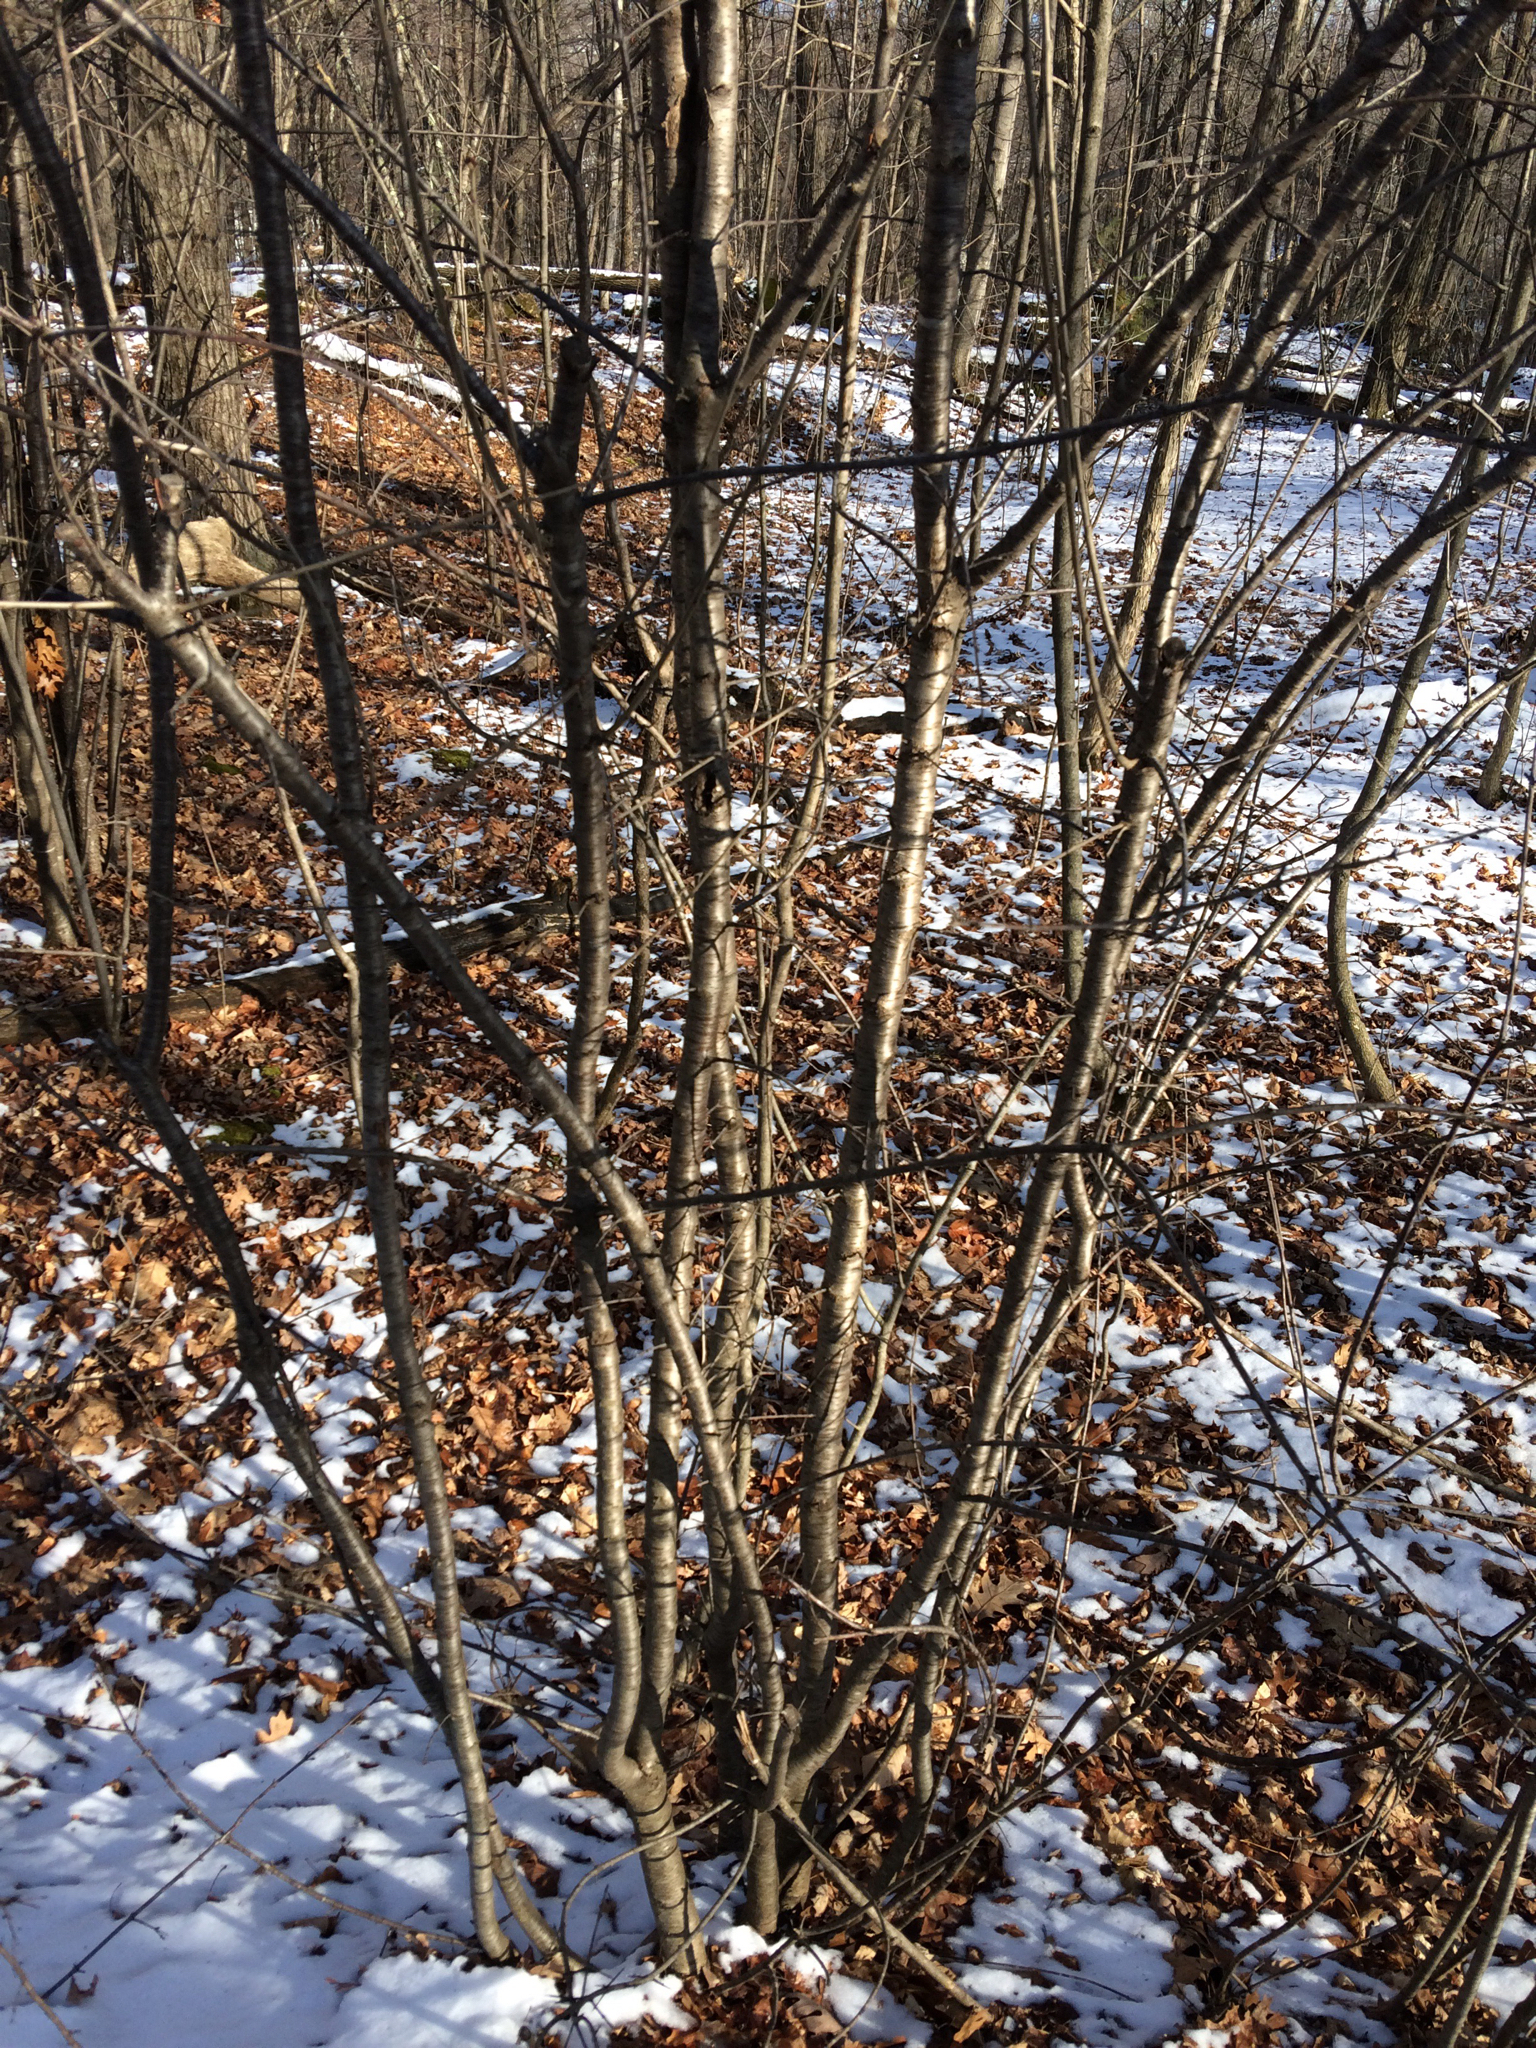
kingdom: Plantae
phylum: Tracheophyta
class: Magnoliopsida
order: Rosales
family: Rhamnaceae
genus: Rhamnus
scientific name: Rhamnus cathartica
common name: Common buckthorn
